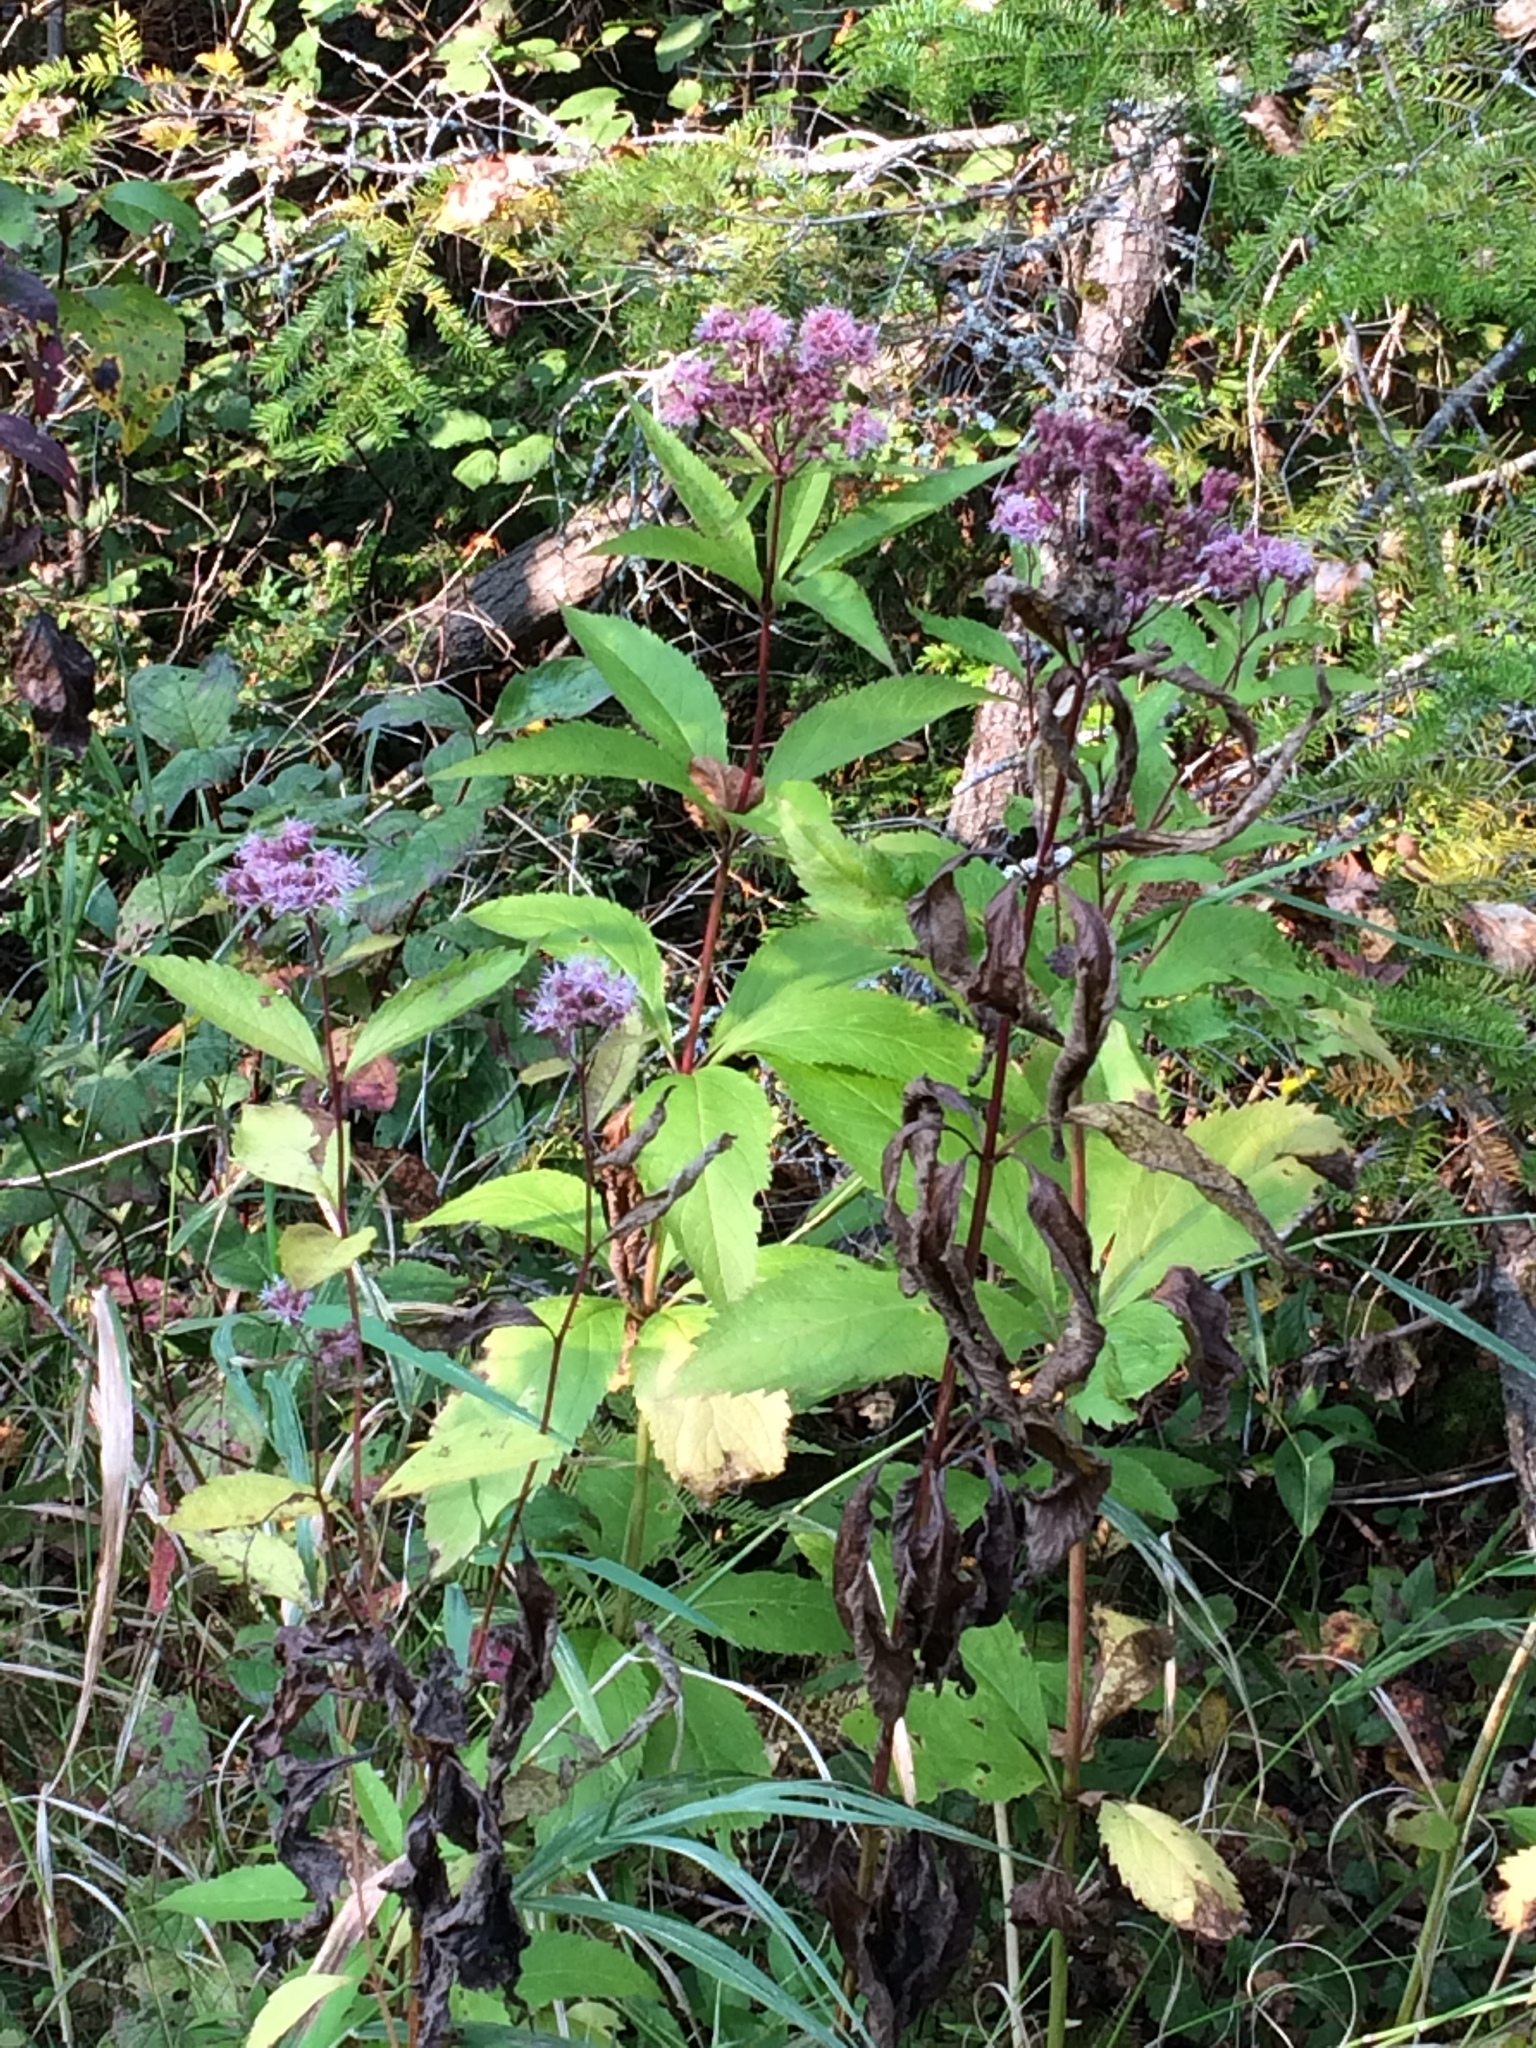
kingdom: Plantae
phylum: Tracheophyta
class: Magnoliopsida
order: Asterales
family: Asteraceae
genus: Eutrochium
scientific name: Eutrochium maculatum
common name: Spotted joe pye weed
